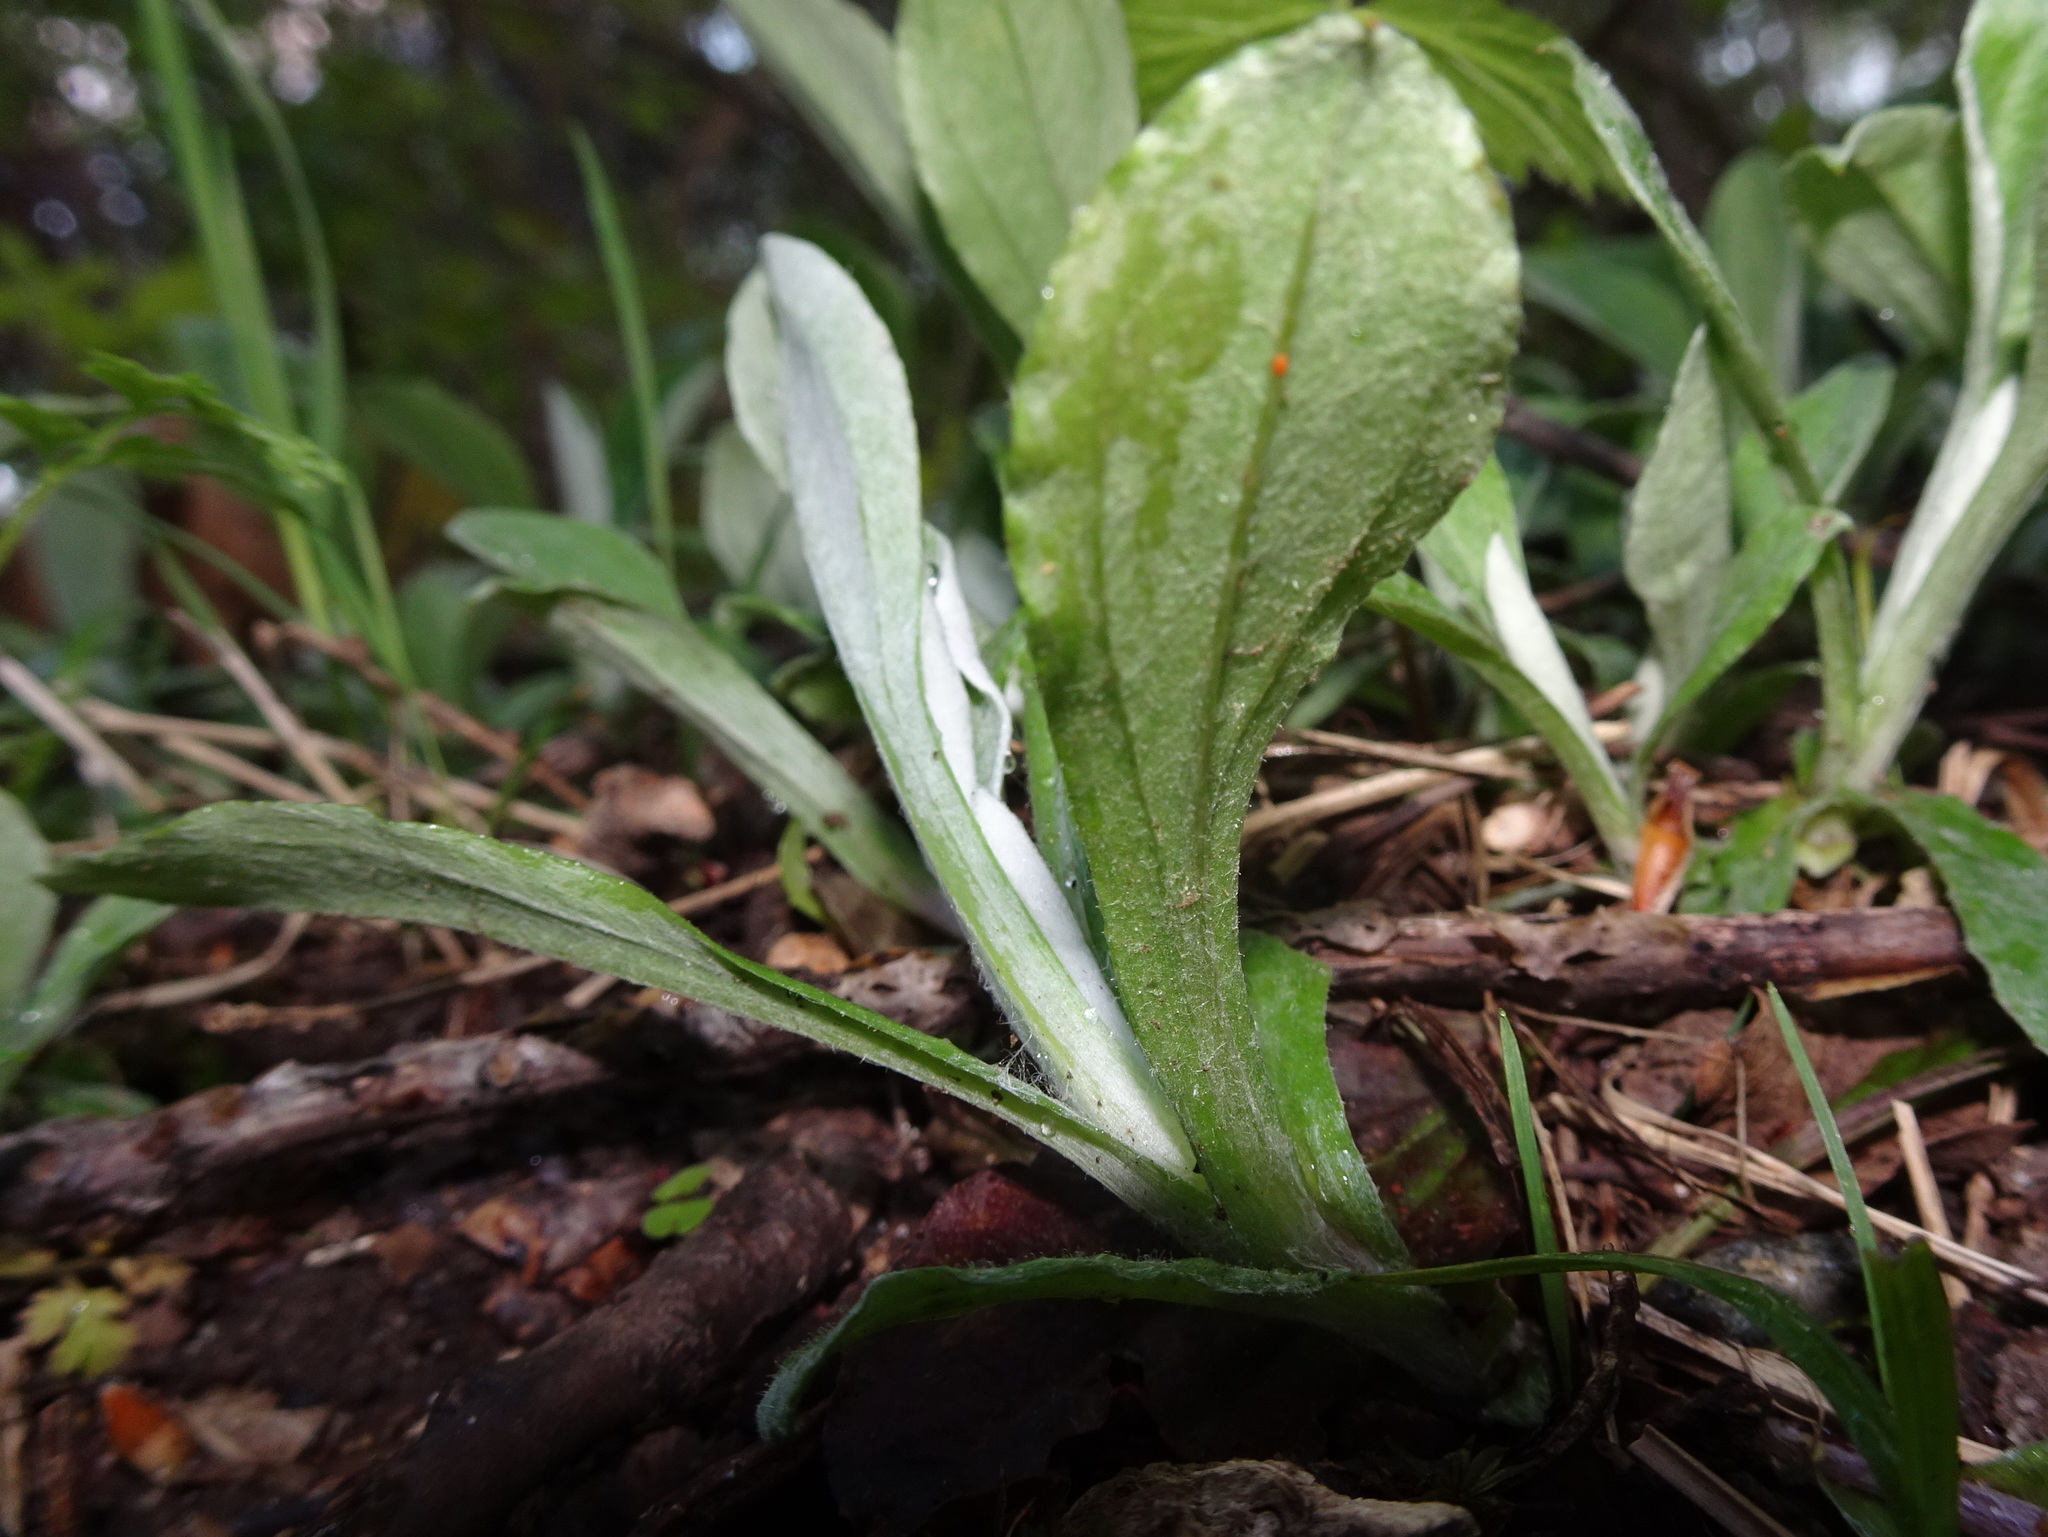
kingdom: Plantae
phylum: Tracheophyta
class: Magnoliopsida
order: Asterales
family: Asteraceae
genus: Antennaria
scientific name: Antennaria parlinii
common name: Parlin's pussytoes
